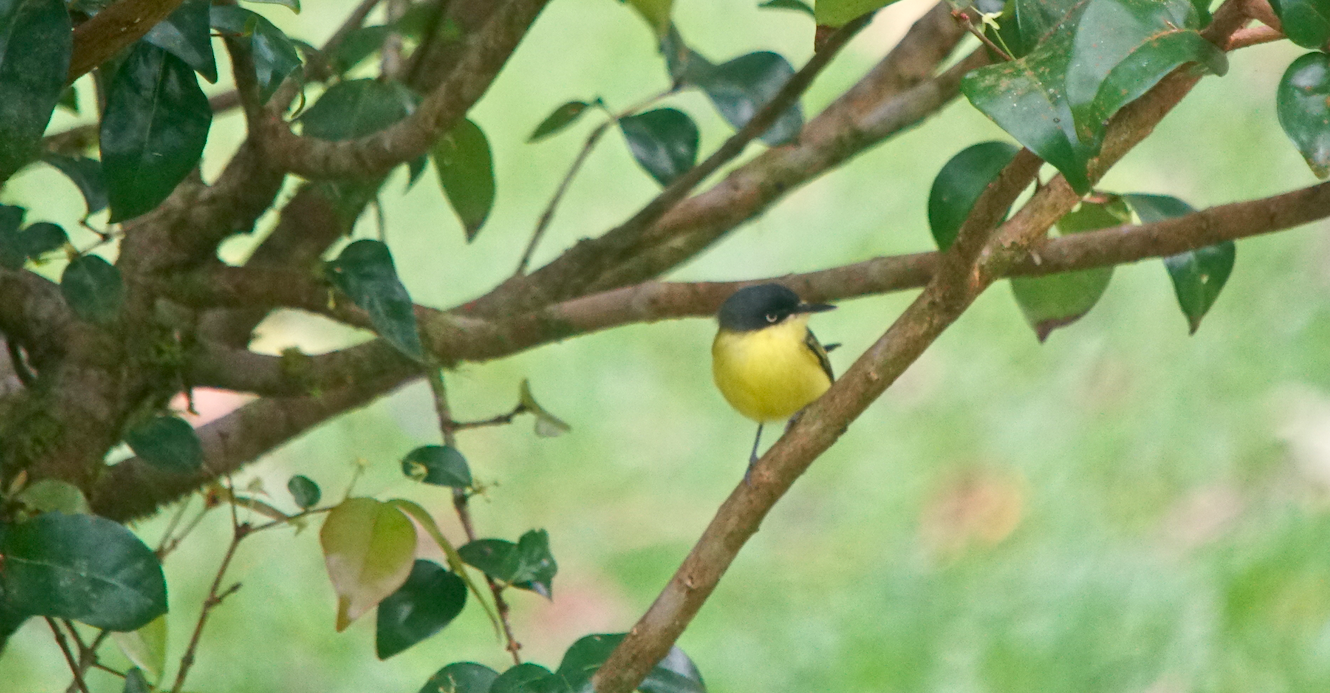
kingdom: Animalia
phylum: Chordata
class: Aves
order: Passeriformes
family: Tyrannidae
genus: Todirostrum
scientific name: Todirostrum cinereum
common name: Common tody-flycatcher
